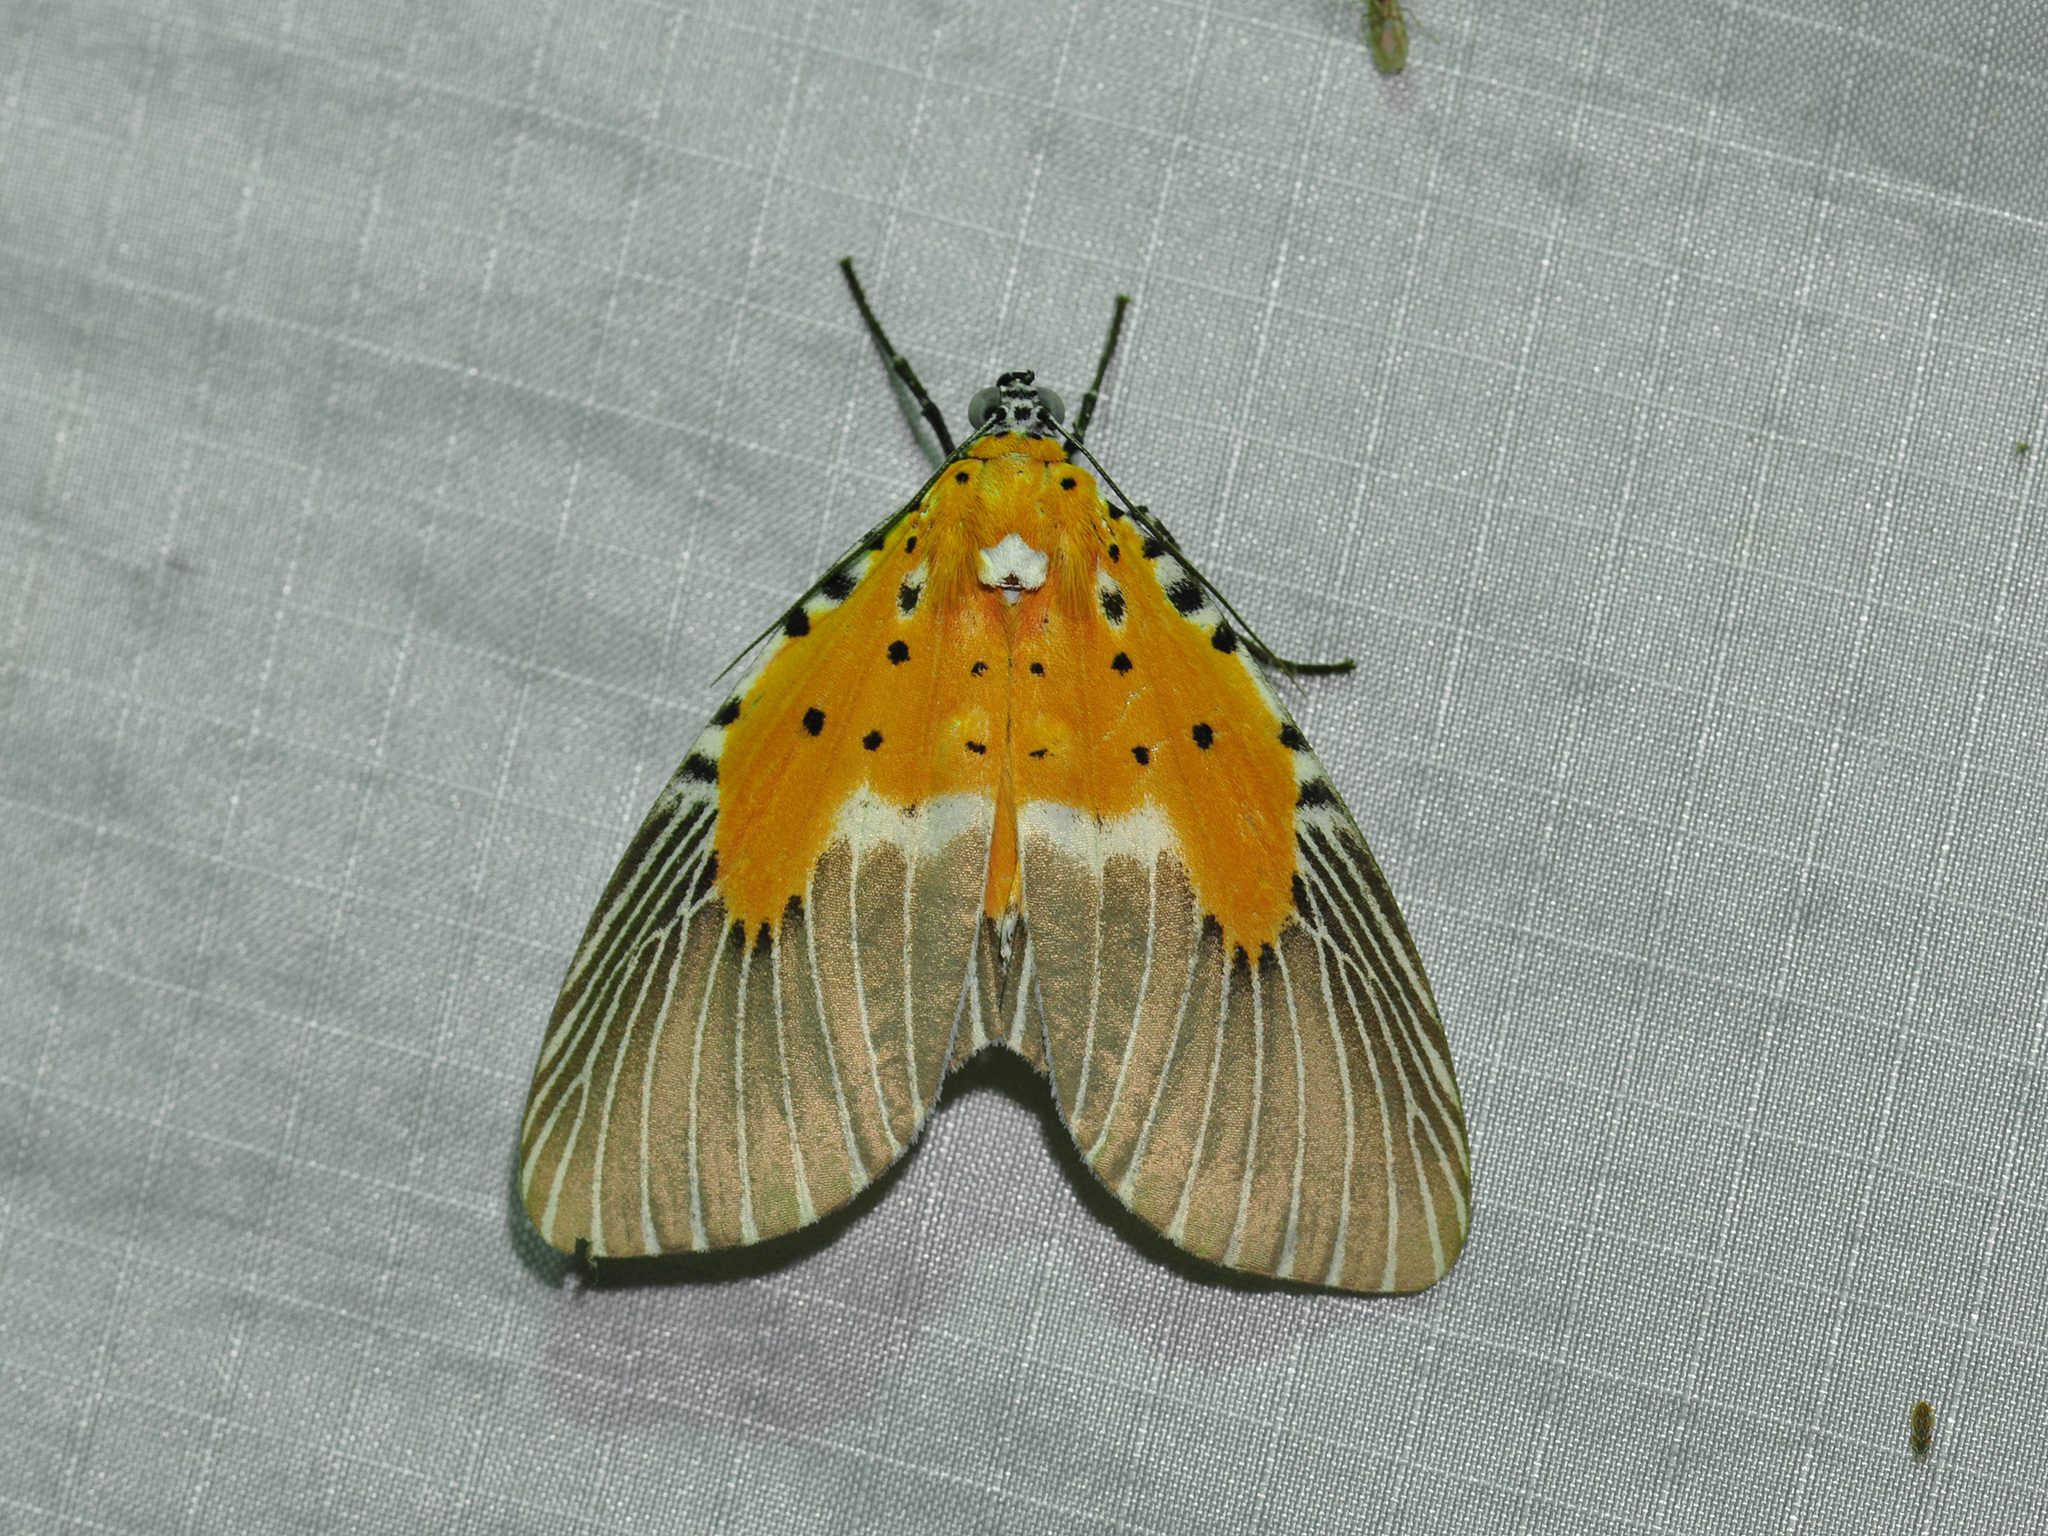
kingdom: Animalia
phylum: Arthropoda
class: Insecta
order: Lepidoptera
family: Erebidae
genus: Peridrome
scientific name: Peridrome subfascia
